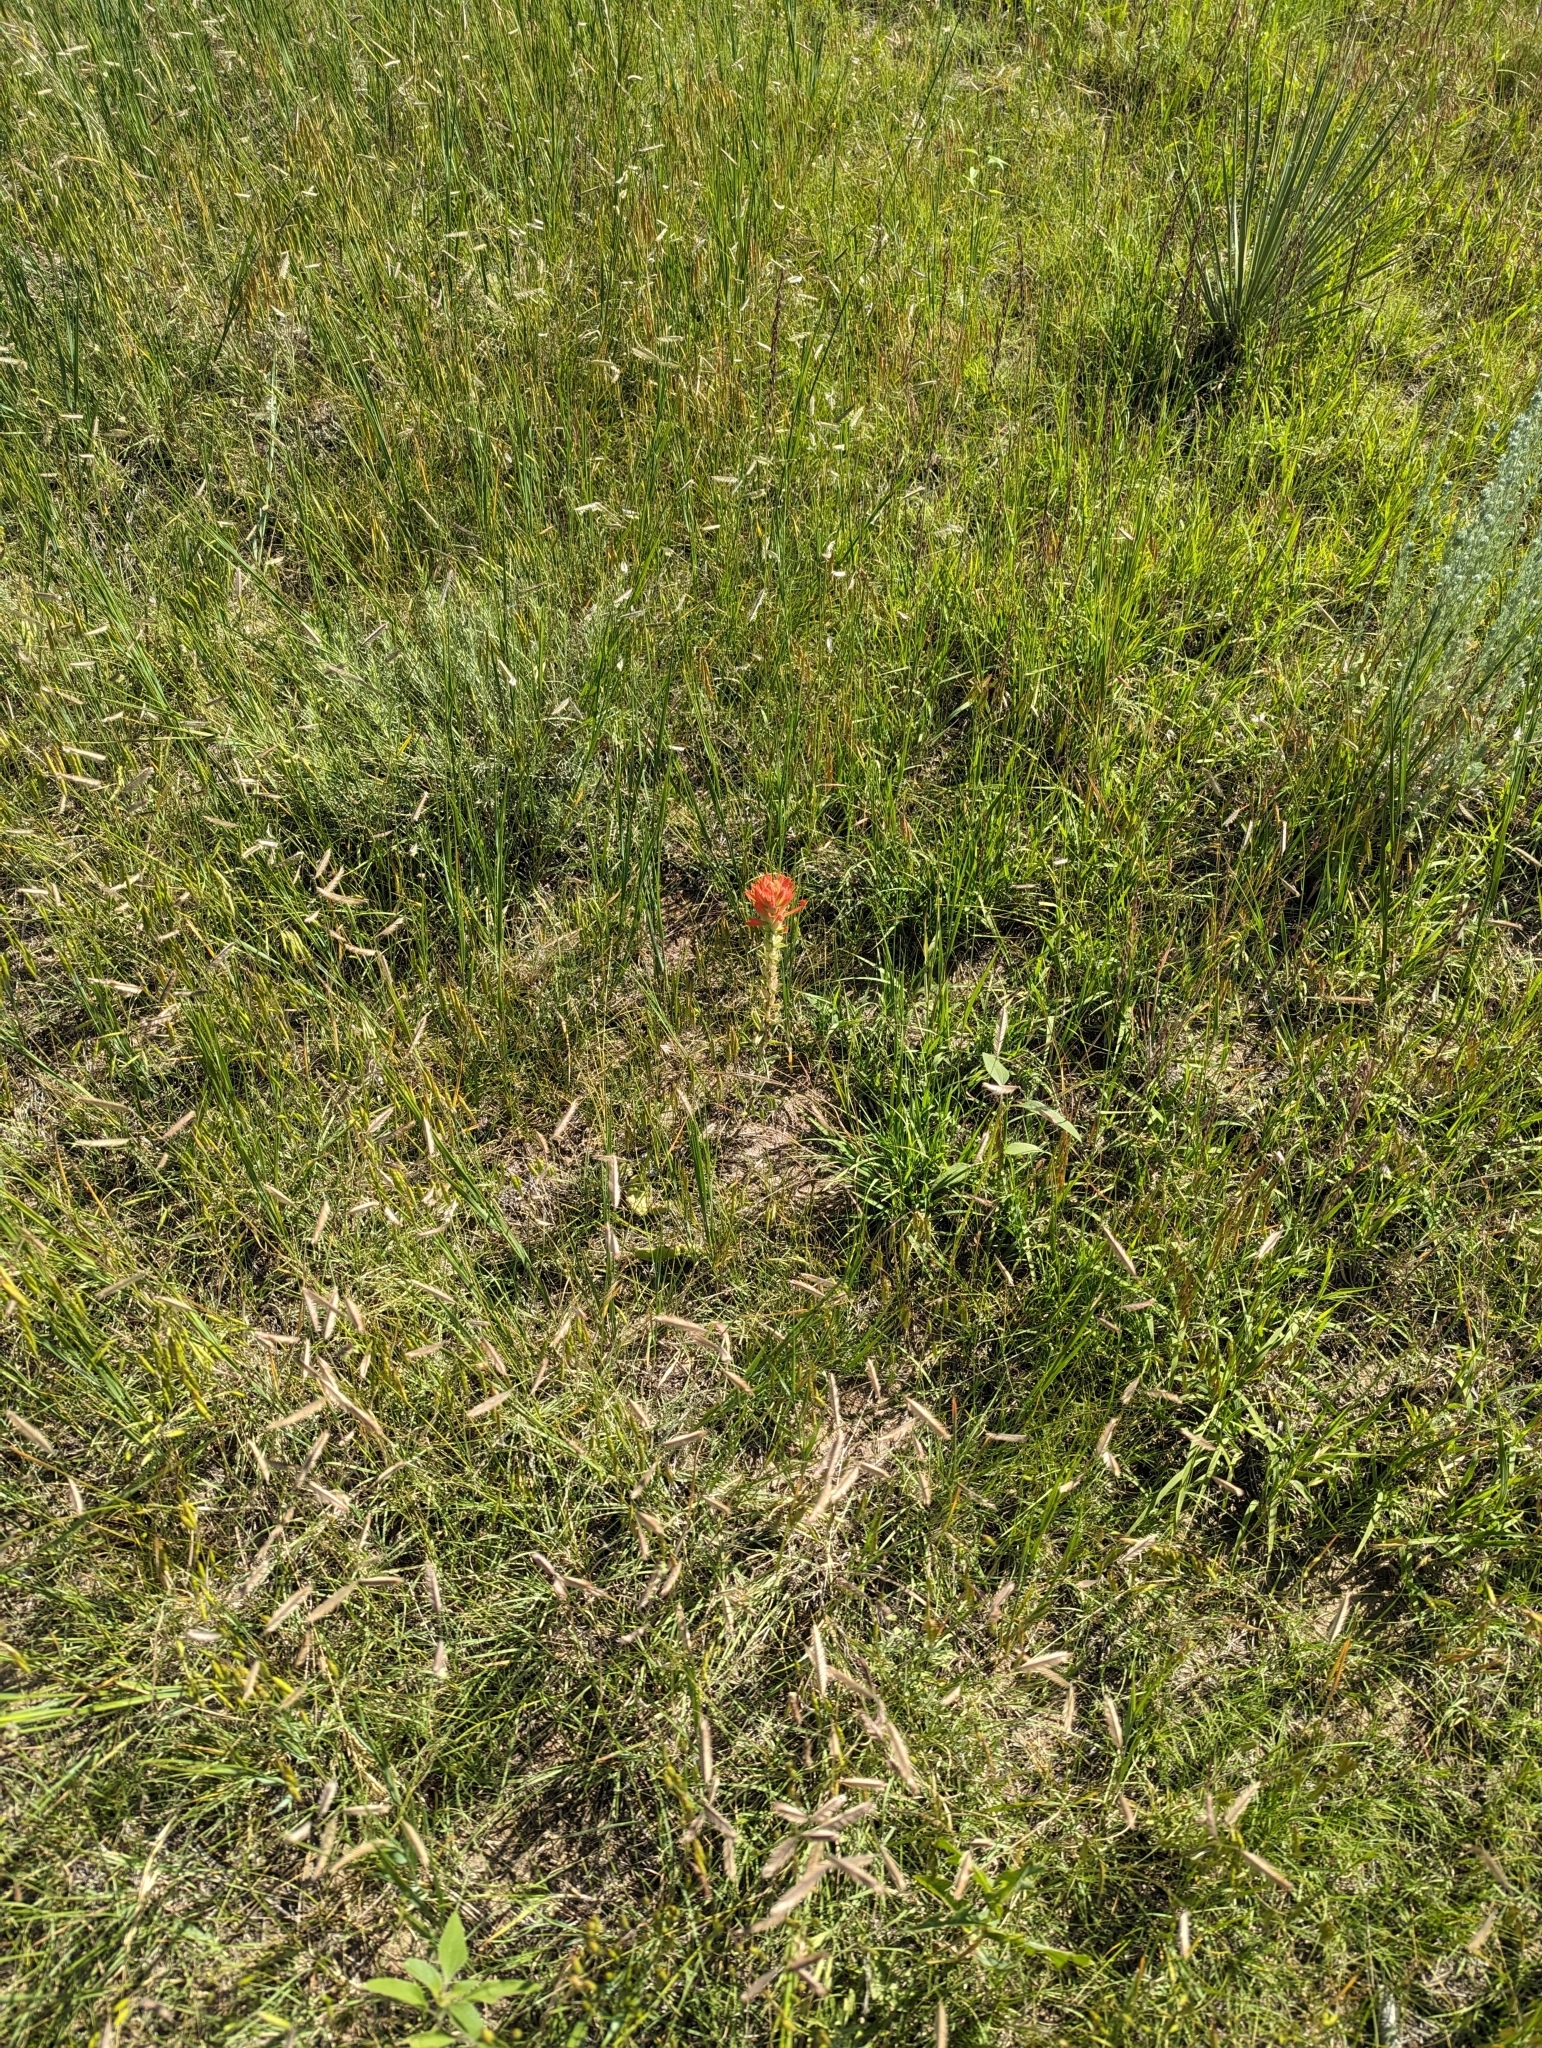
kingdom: Plantae
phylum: Tracheophyta
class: Magnoliopsida
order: Lamiales
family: Orobanchaceae
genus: Castilleja
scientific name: Castilleja integra
